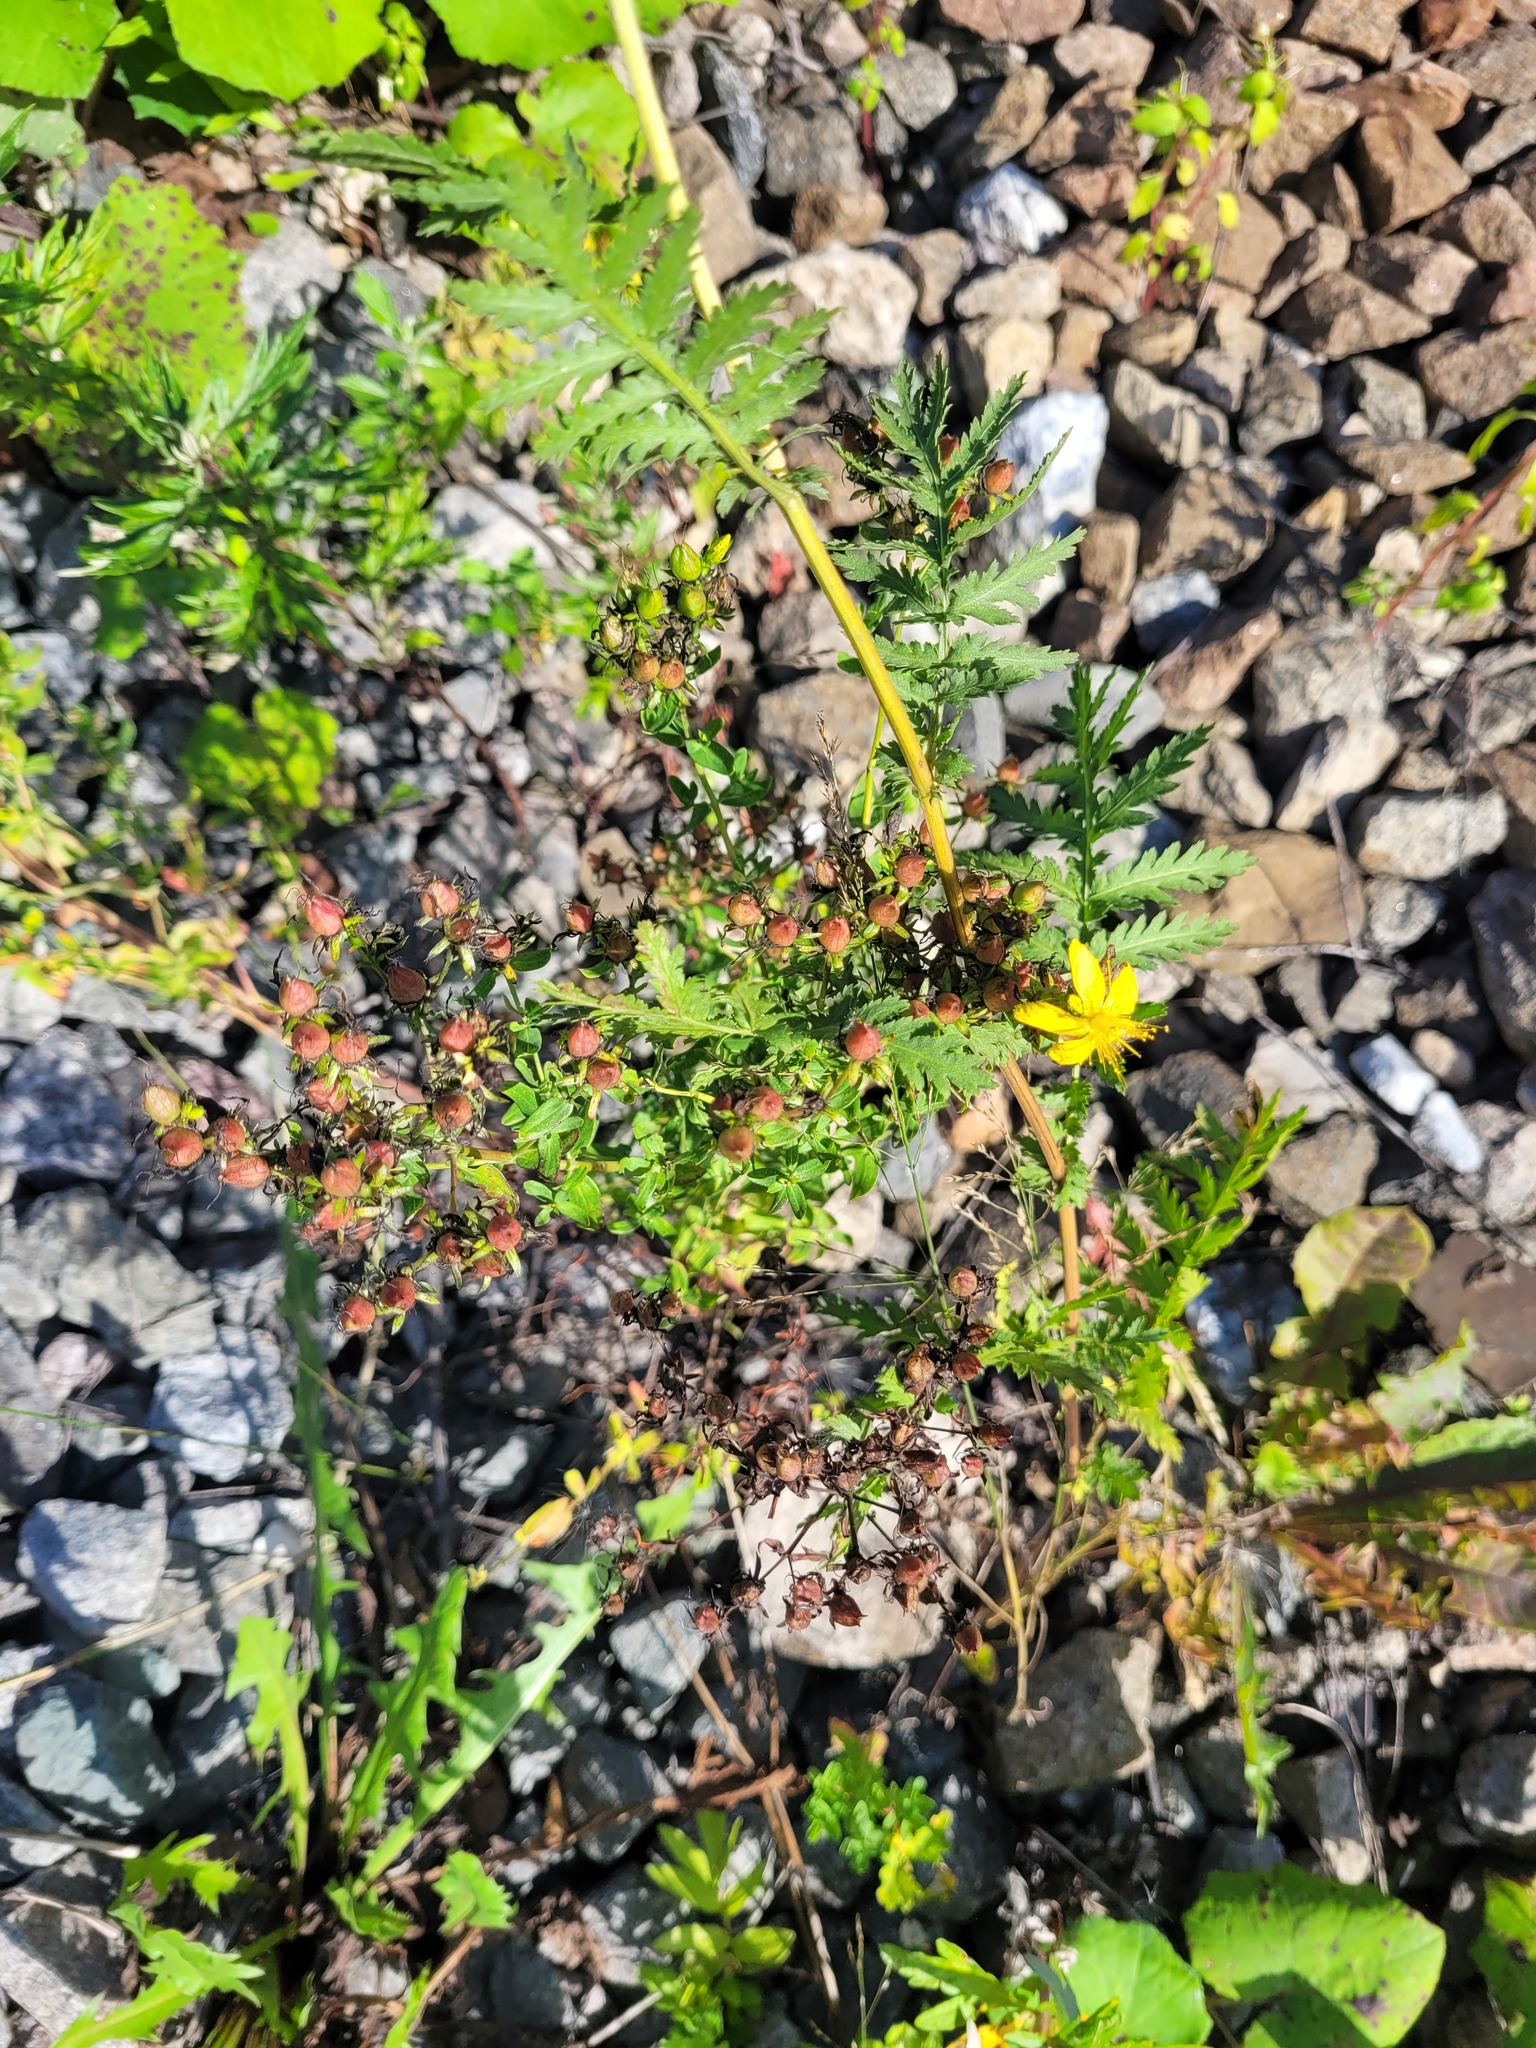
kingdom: Plantae
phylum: Tracheophyta
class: Magnoliopsida
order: Malpighiales
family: Hypericaceae
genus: Hypericum
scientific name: Hypericum perforatum
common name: Common st. johnswort
